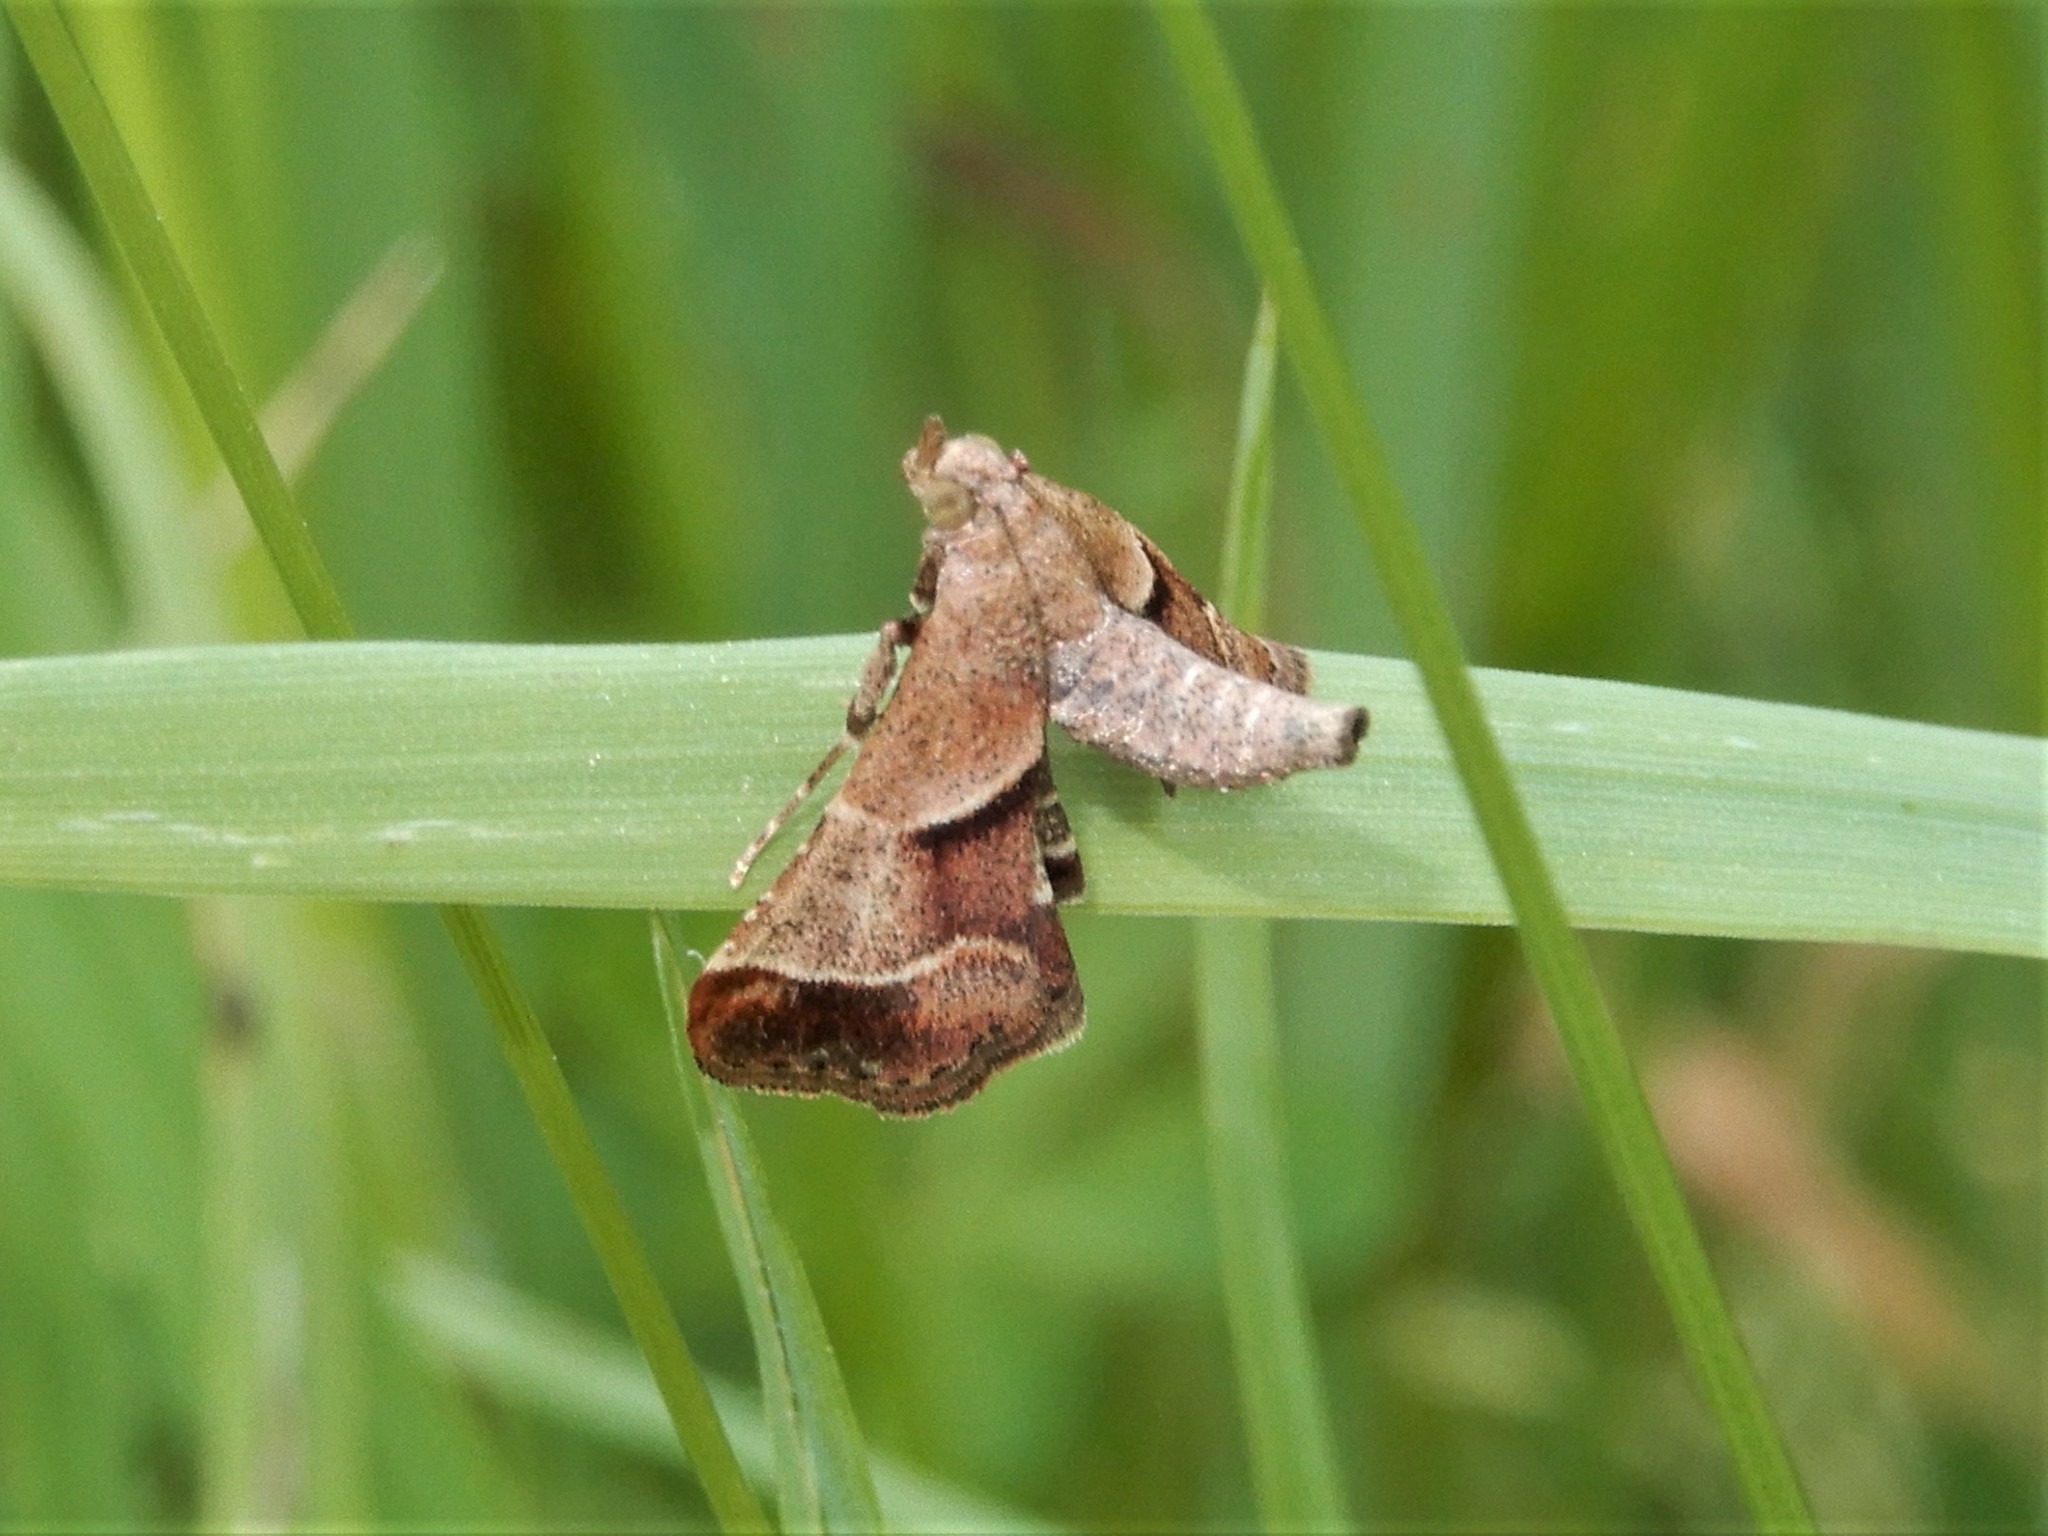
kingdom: Animalia
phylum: Arthropoda
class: Insecta
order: Lepidoptera
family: Pyralidae
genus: Gauna
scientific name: Gauna aegusalis
